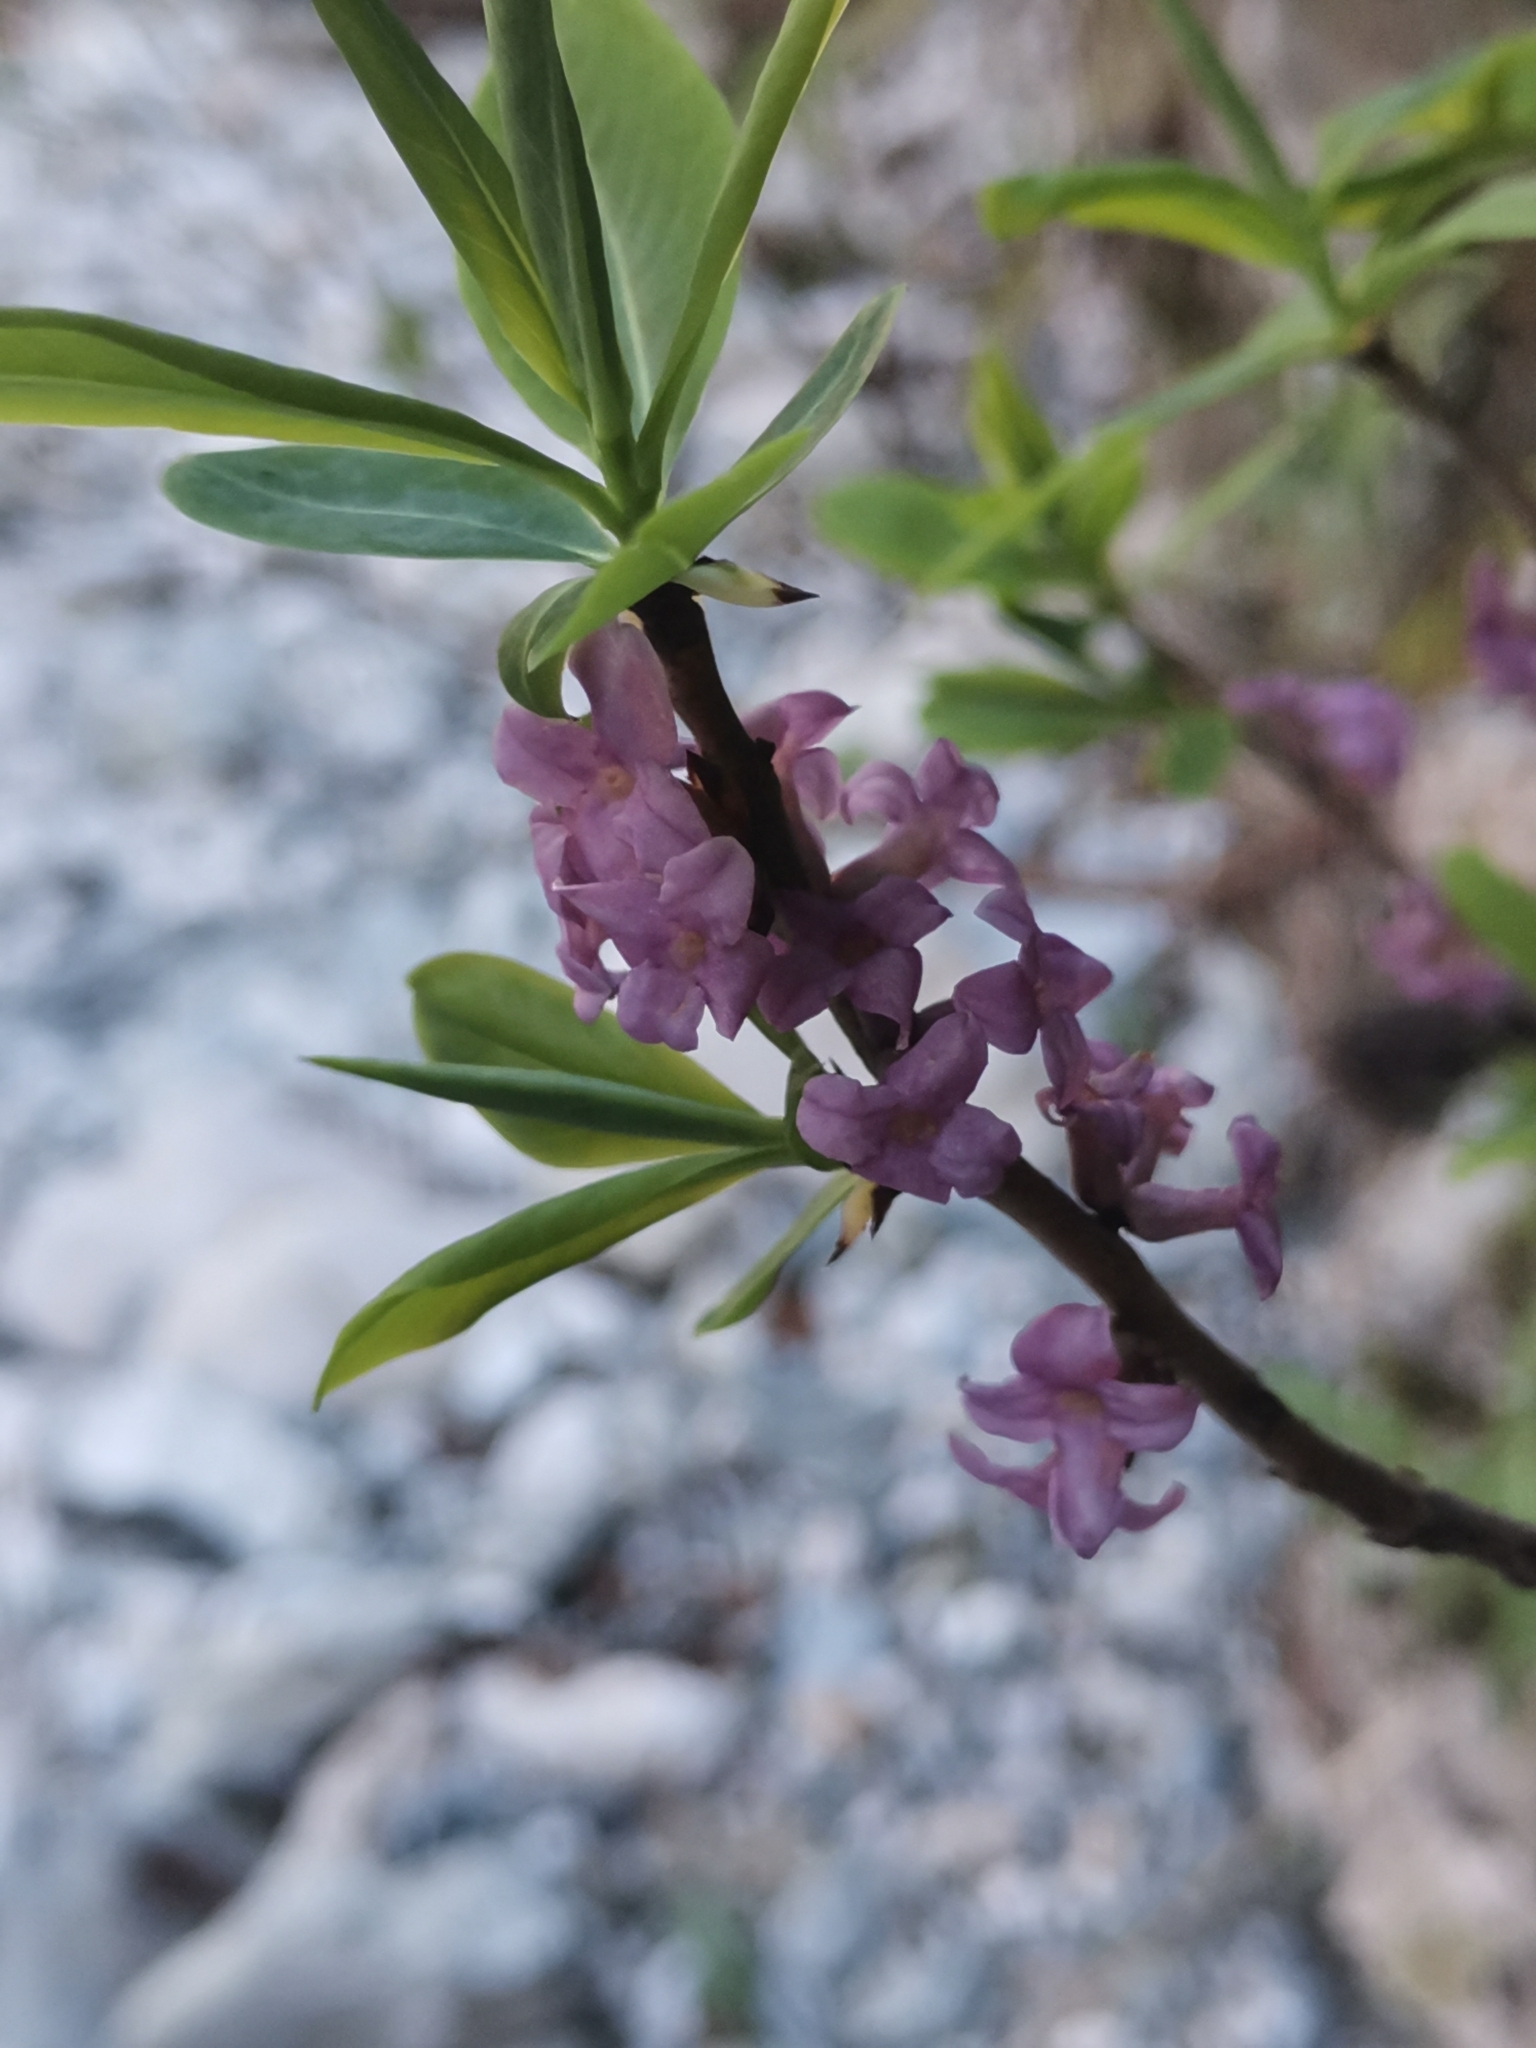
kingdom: Plantae
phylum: Tracheophyta
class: Magnoliopsida
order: Malvales
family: Thymelaeaceae
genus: Daphne
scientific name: Daphne mezereum
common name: Mezereon
